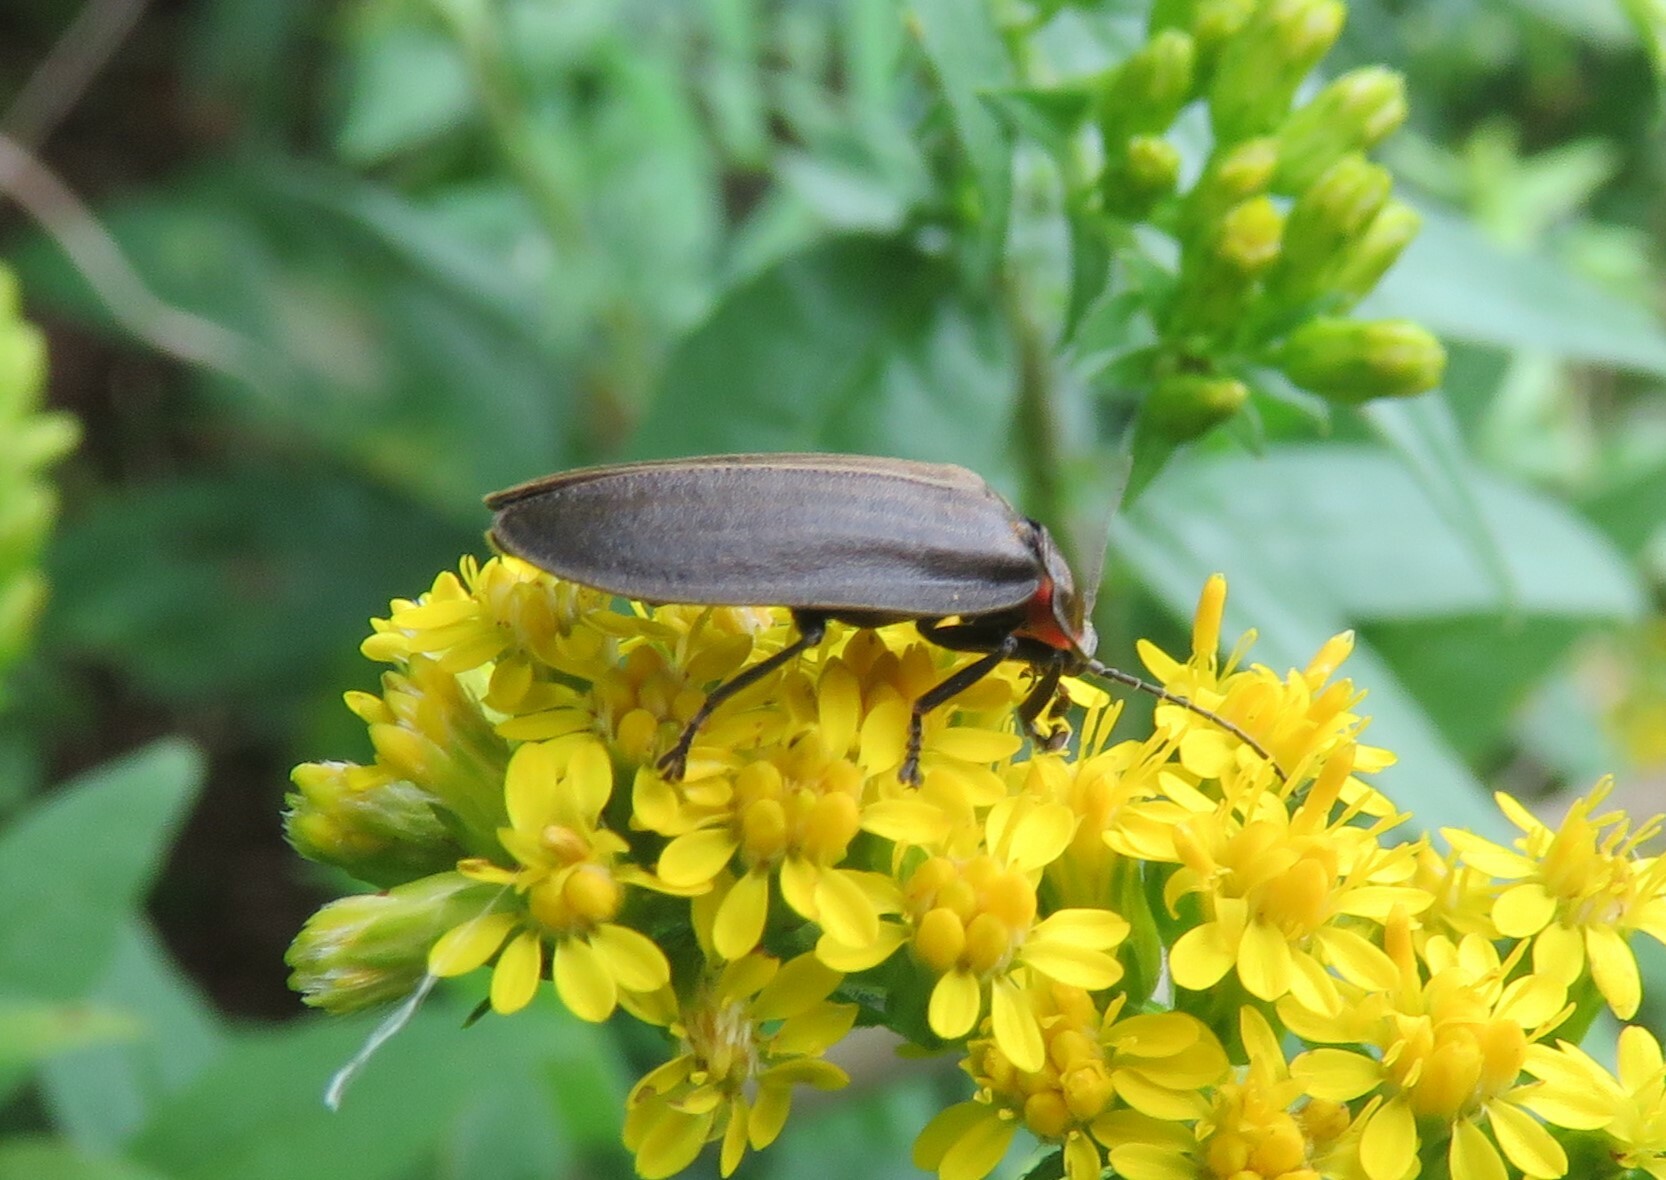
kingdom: Animalia
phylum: Arthropoda
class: Insecta
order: Coleoptera
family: Lampyridae
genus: Photinus
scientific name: Photinus corrusca
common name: Winter firefly
